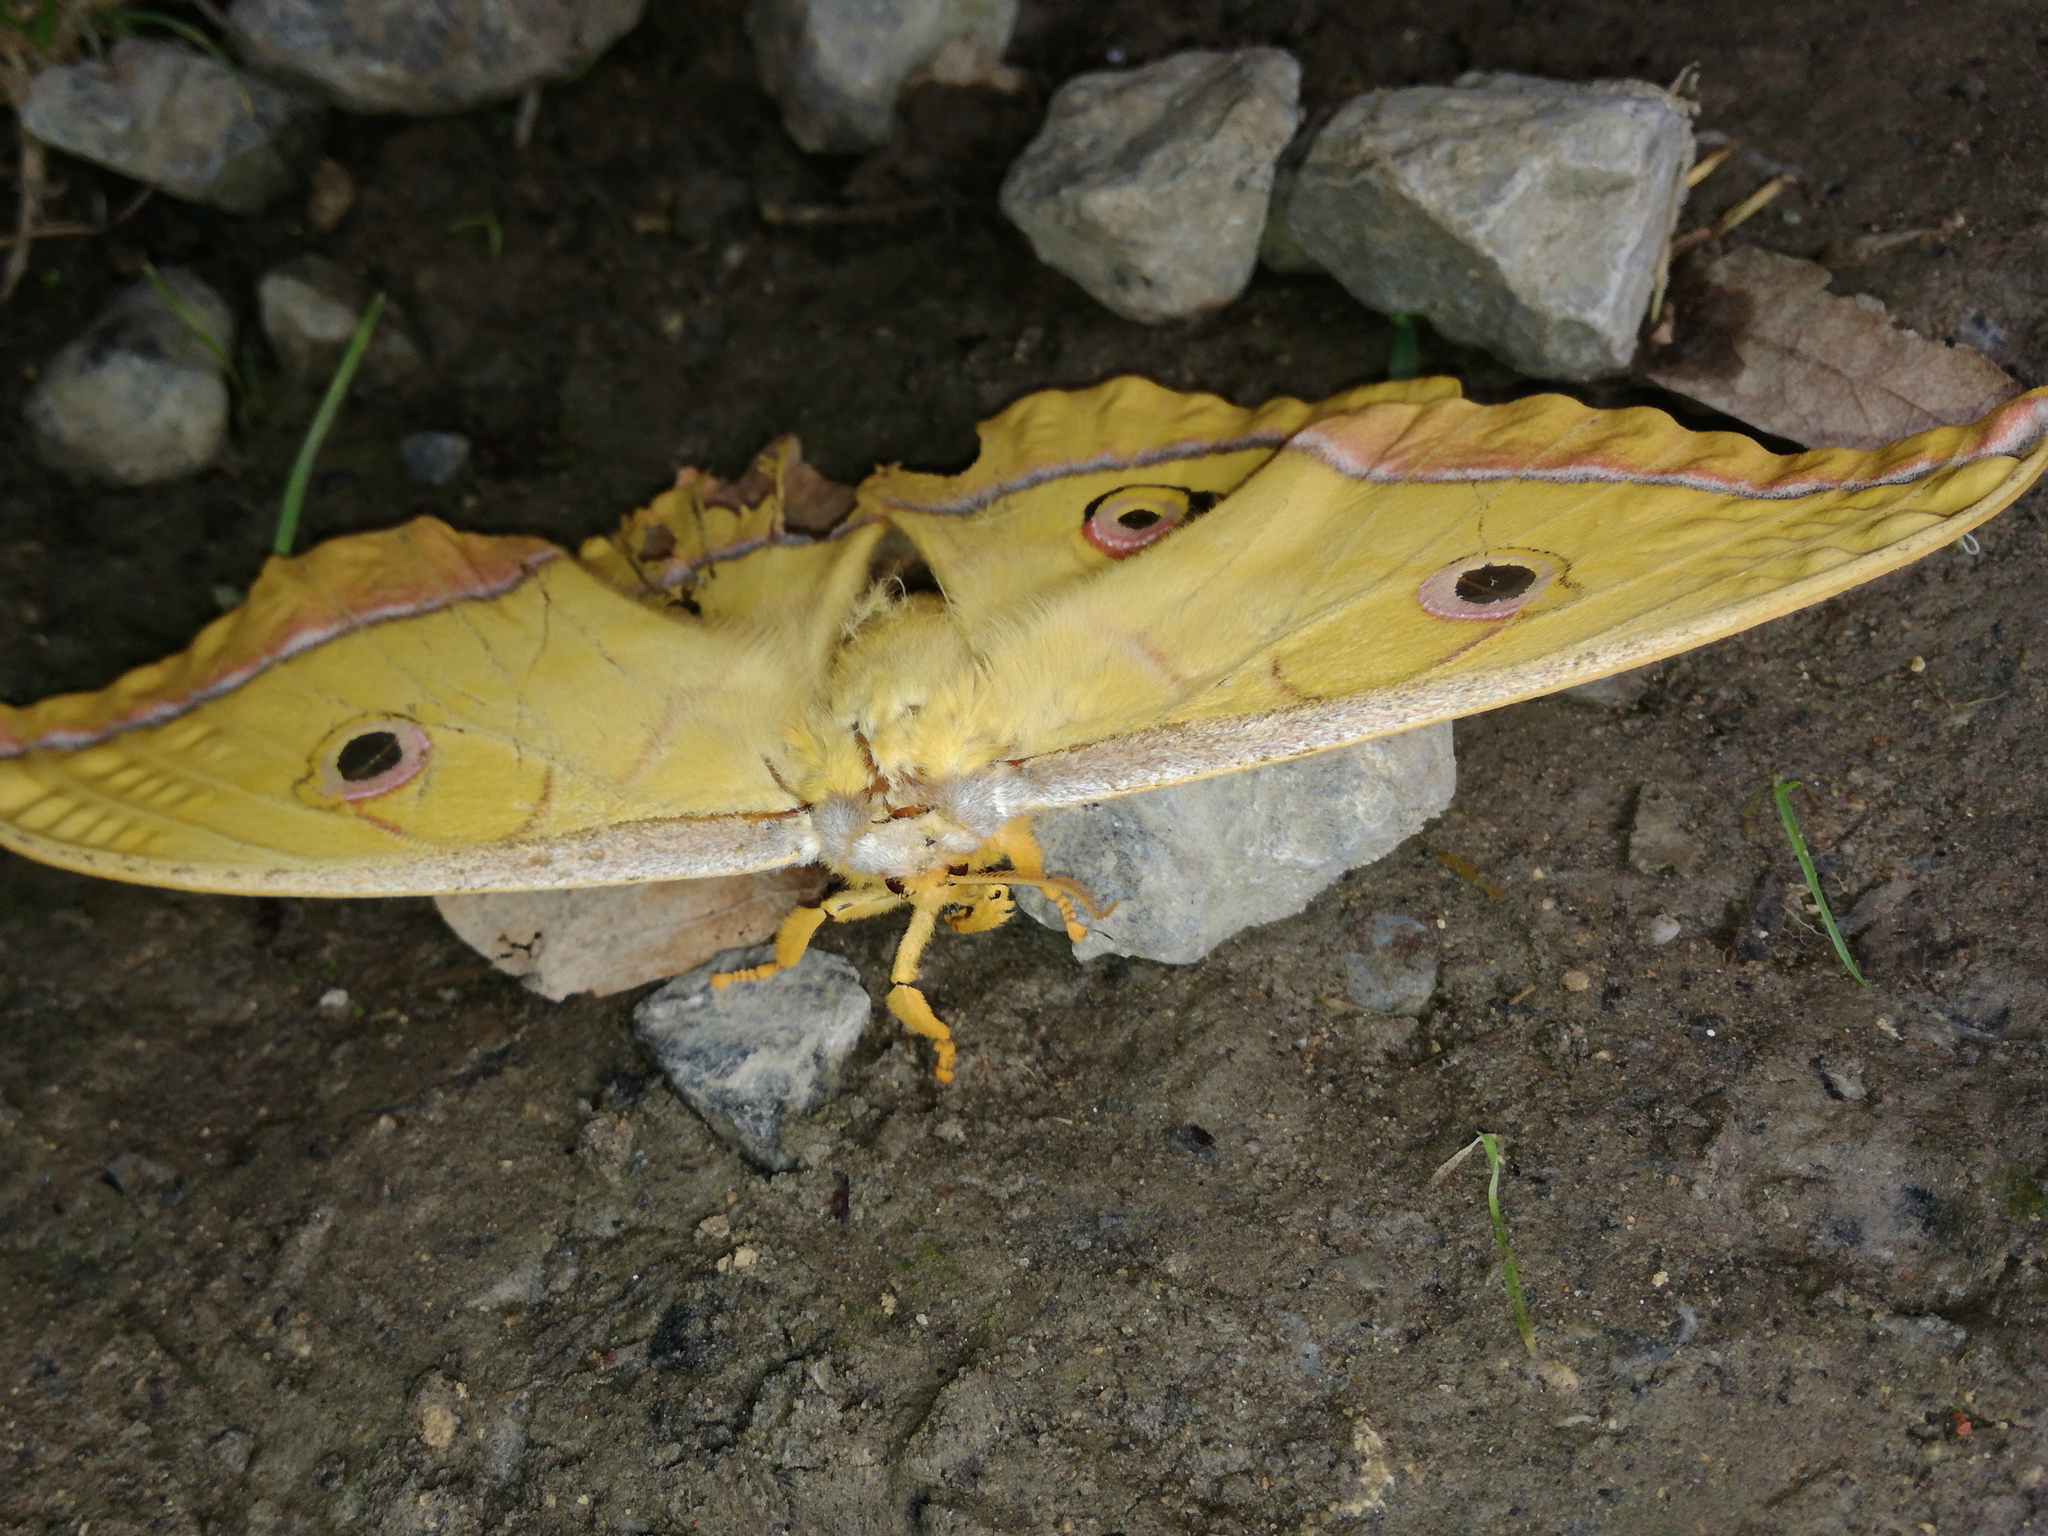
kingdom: Animalia
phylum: Arthropoda
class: Insecta
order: Lepidoptera
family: Saturniidae
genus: Antheraea
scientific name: Antheraea yamamai
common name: Japanese oak silk moth
